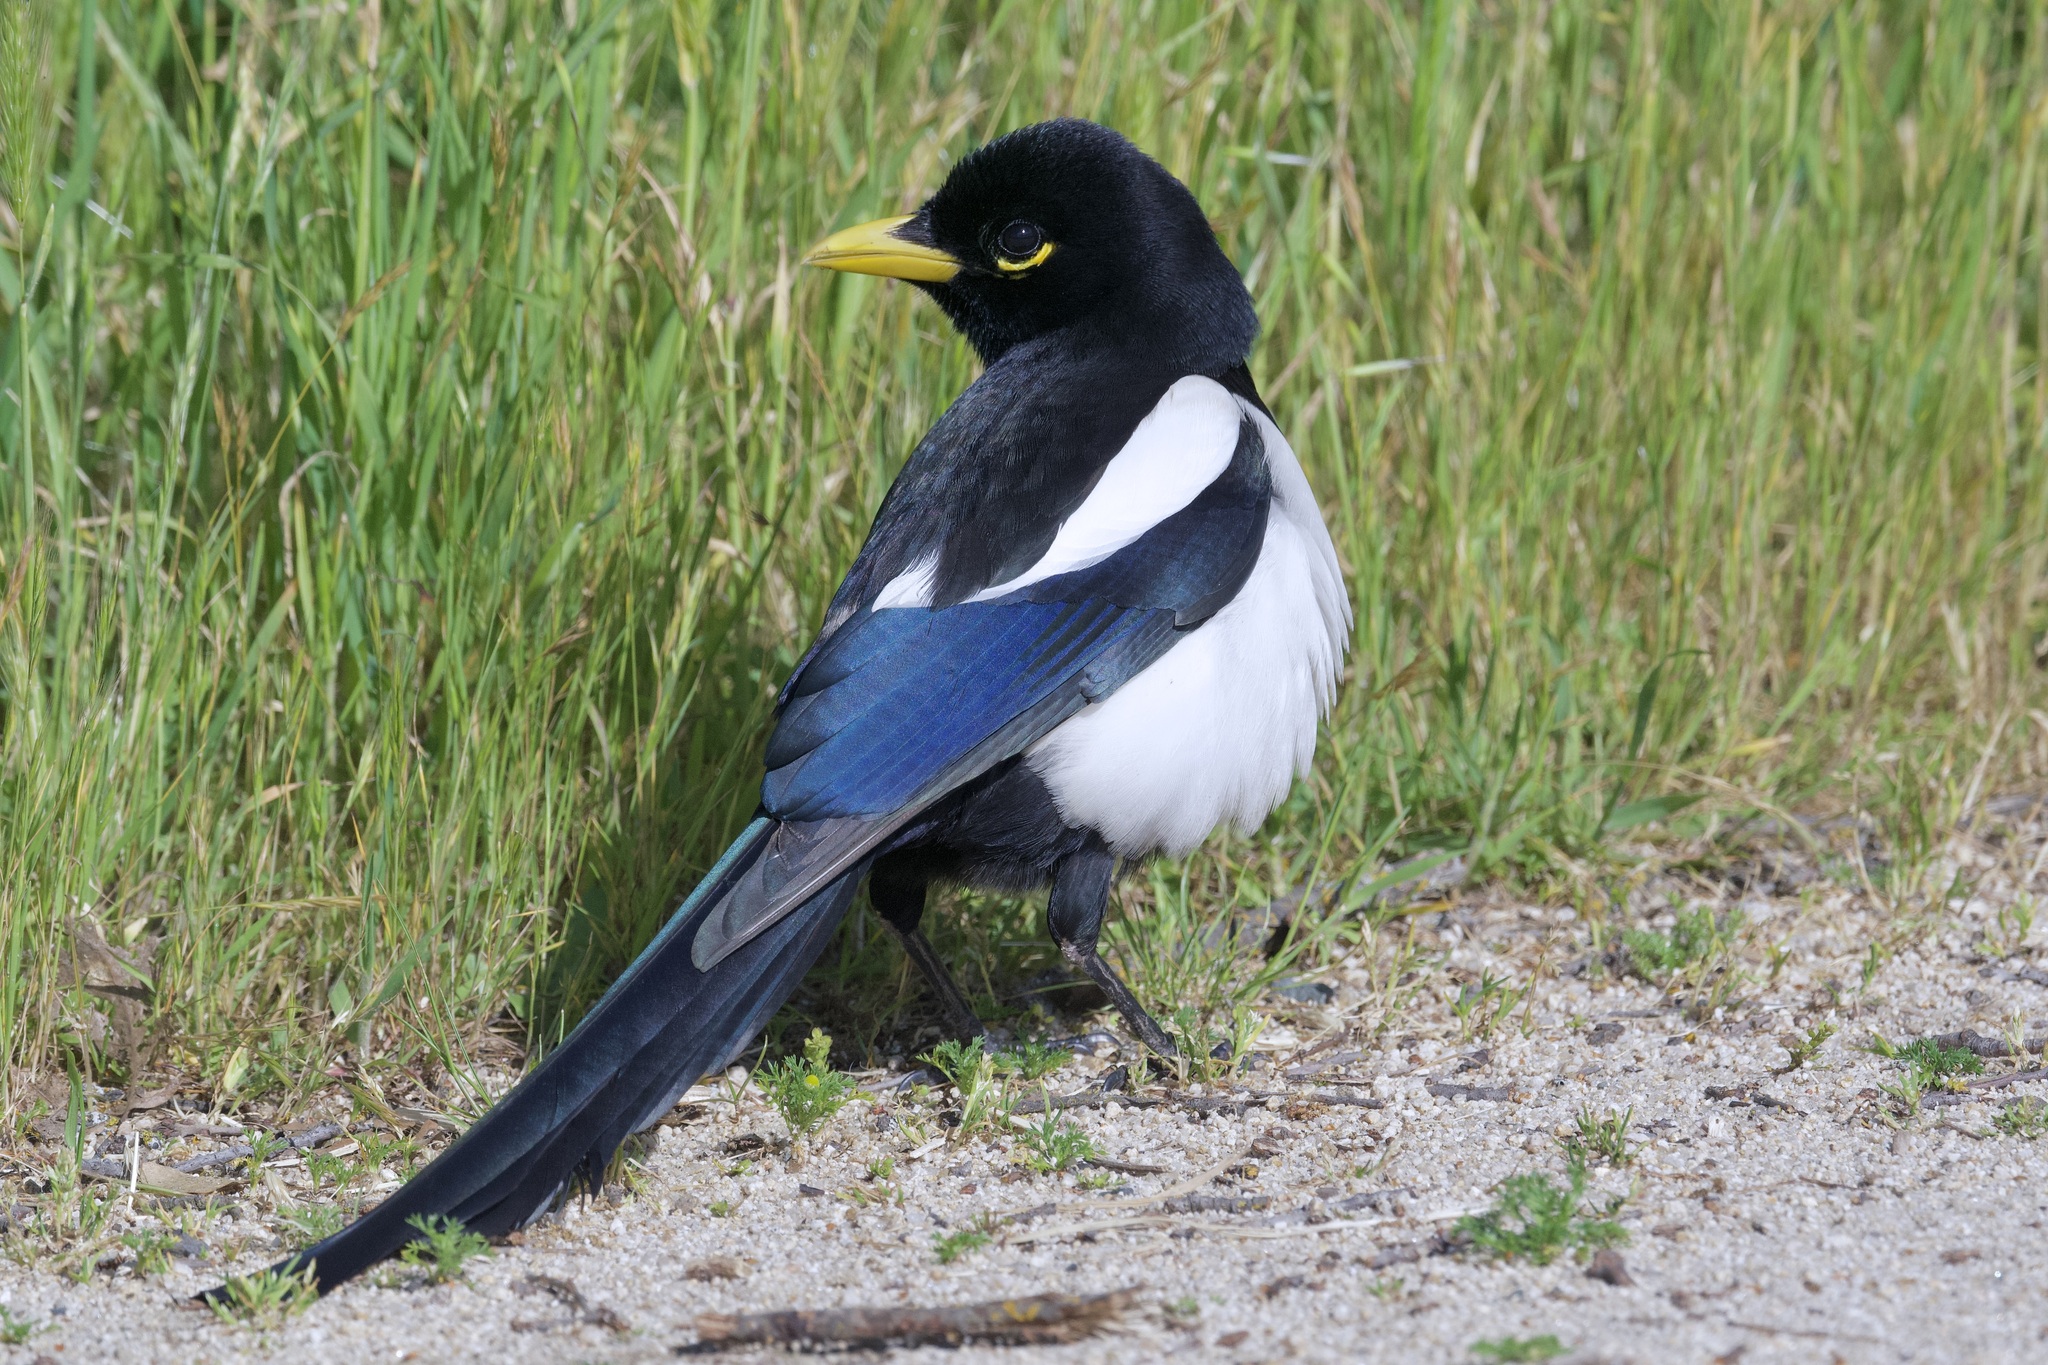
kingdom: Animalia
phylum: Chordata
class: Aves
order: Passeriformes
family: Corvidae
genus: Pica
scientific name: Pica nuttalli
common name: Yellow-billed magpie
